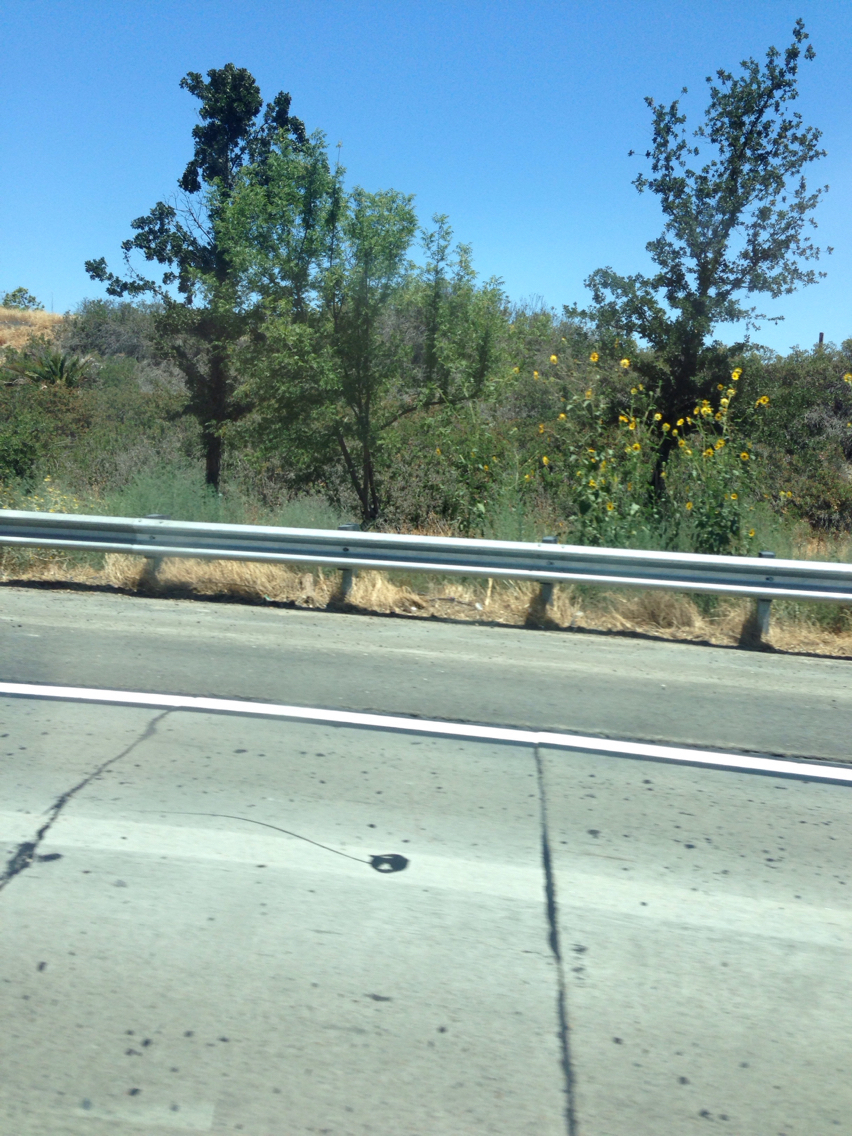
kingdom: Plantae
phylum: Tracheophyta
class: Magnoliopsida
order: Asterales
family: Asteraceae
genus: Helianthus
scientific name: Helianthus annuus
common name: Sunflower
